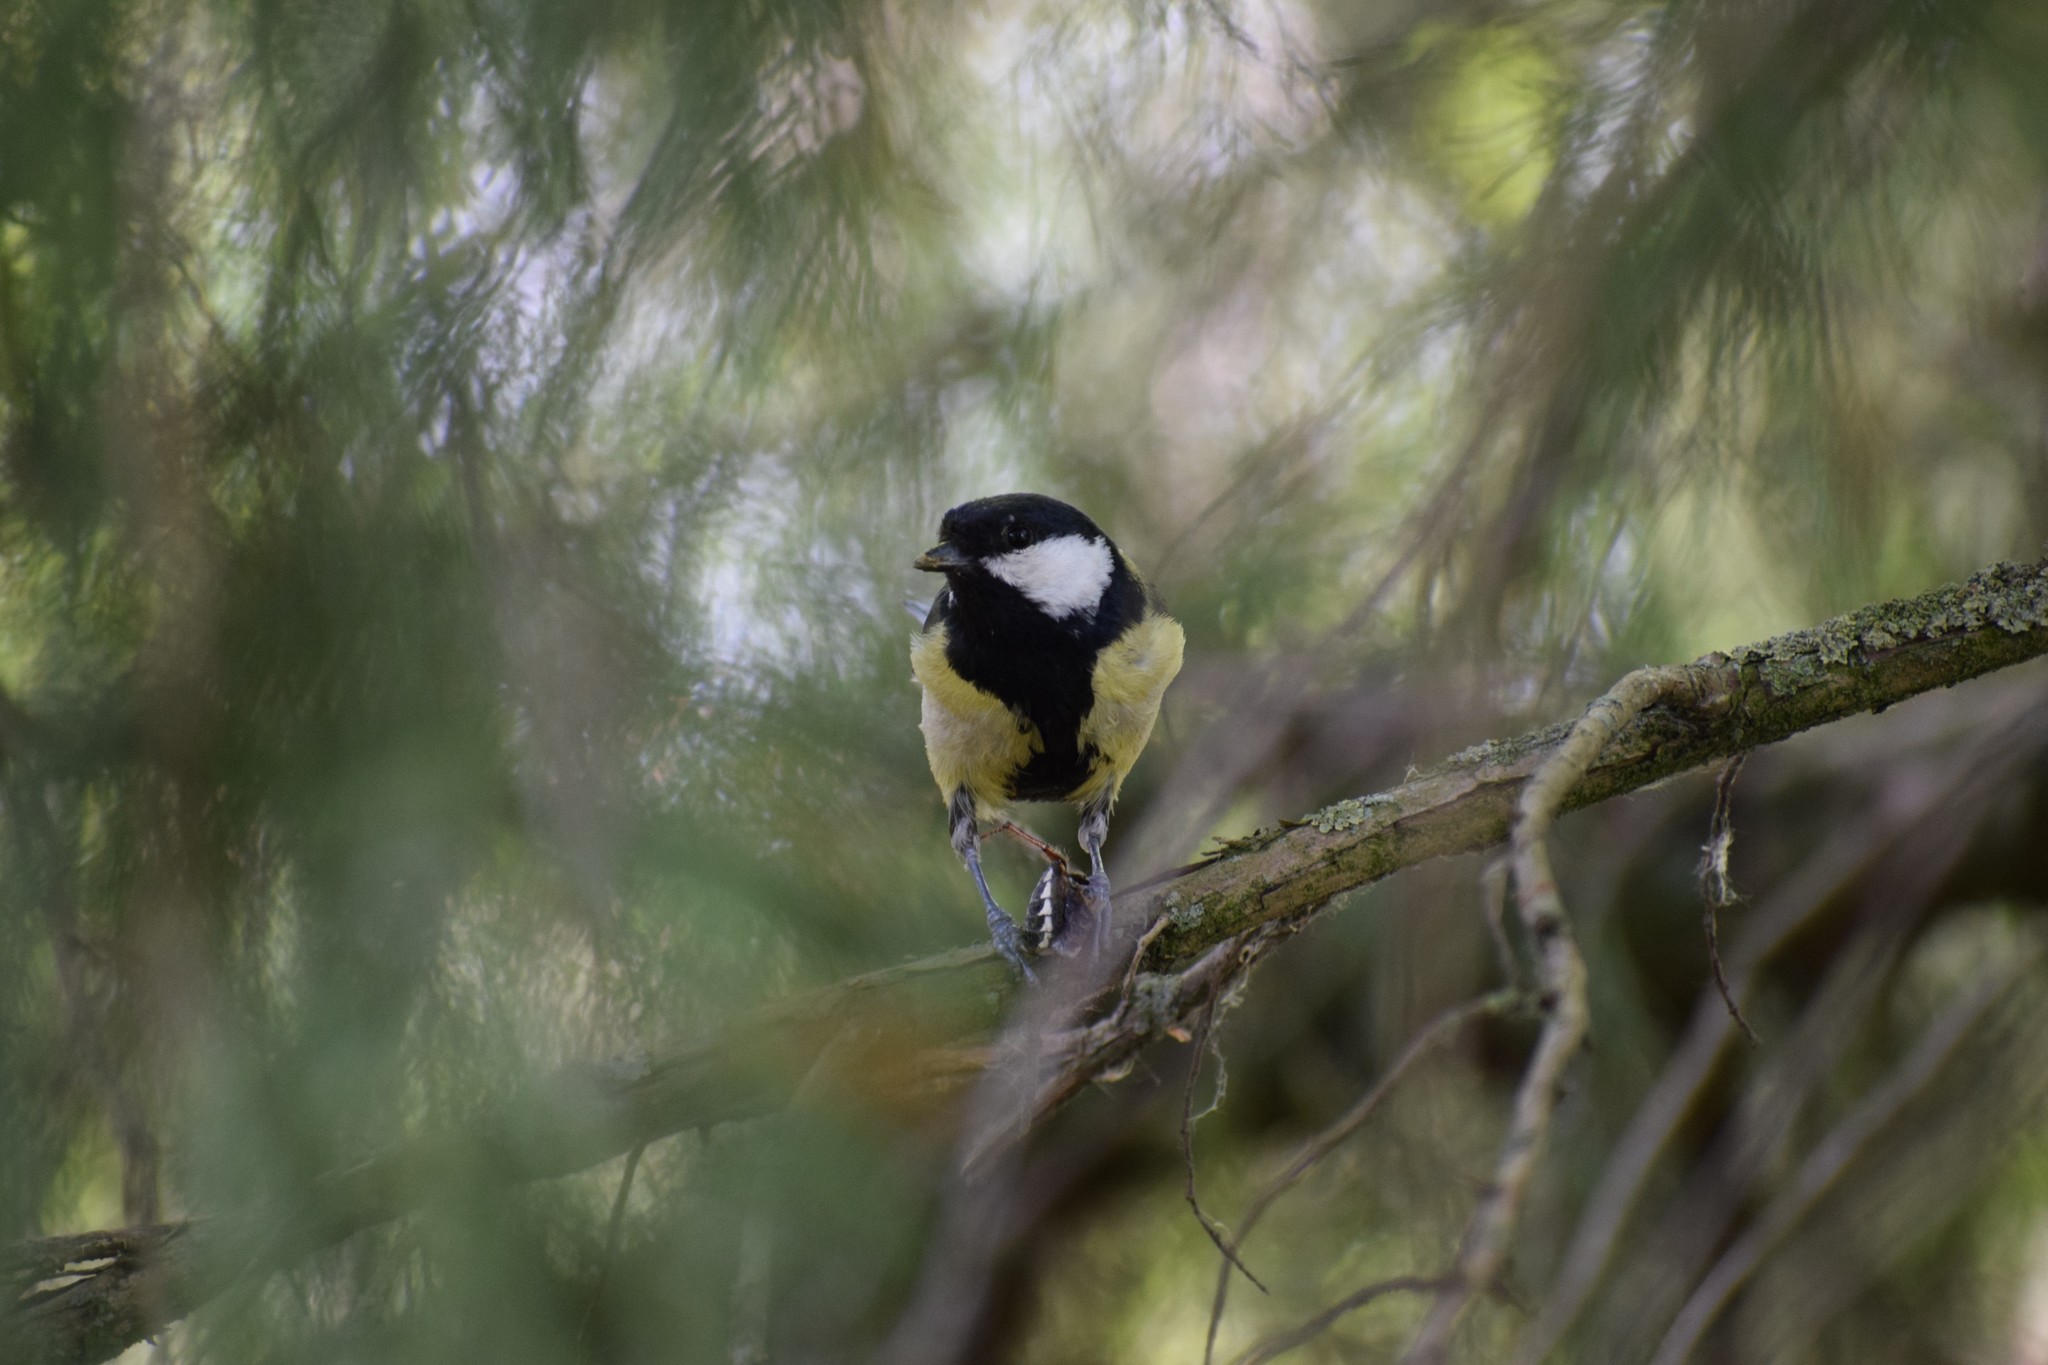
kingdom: Animalia
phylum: Chordata
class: Aves
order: Passeriformes
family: Paridae
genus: Parus
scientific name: Parus major
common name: Great tit
